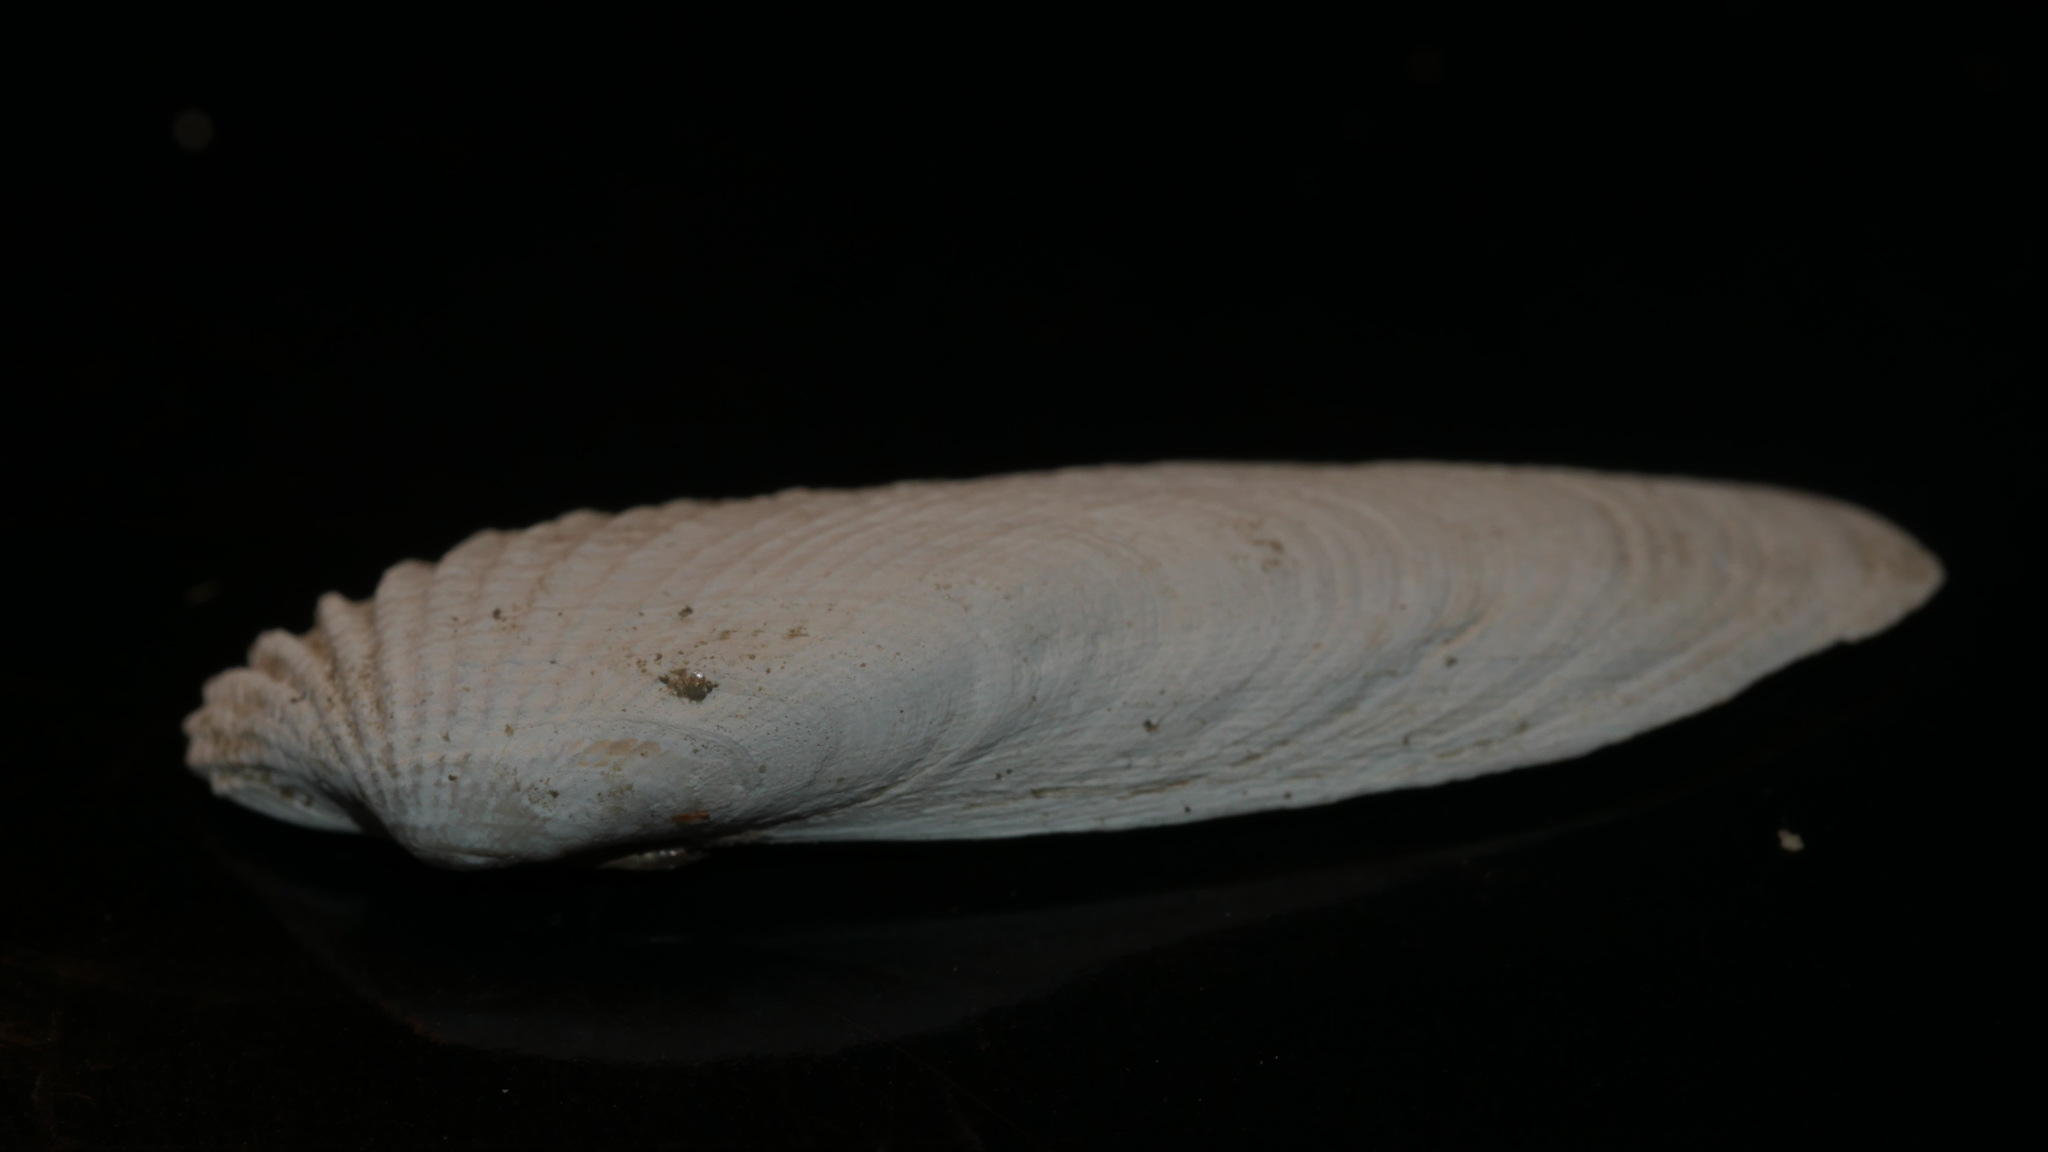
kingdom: Animalia
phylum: Mollusca
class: Bivalvia
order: Venerida
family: Veneridae
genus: Petricolaria
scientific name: Petricolaria pholadiformis
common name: American piddock
